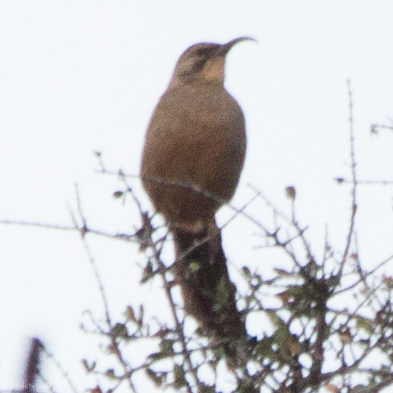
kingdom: Animalia
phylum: Chordata
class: Aves
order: Passeriformes
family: Mimidae
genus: Toxostoma
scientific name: Toxostoma redivivum
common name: California thrasher
